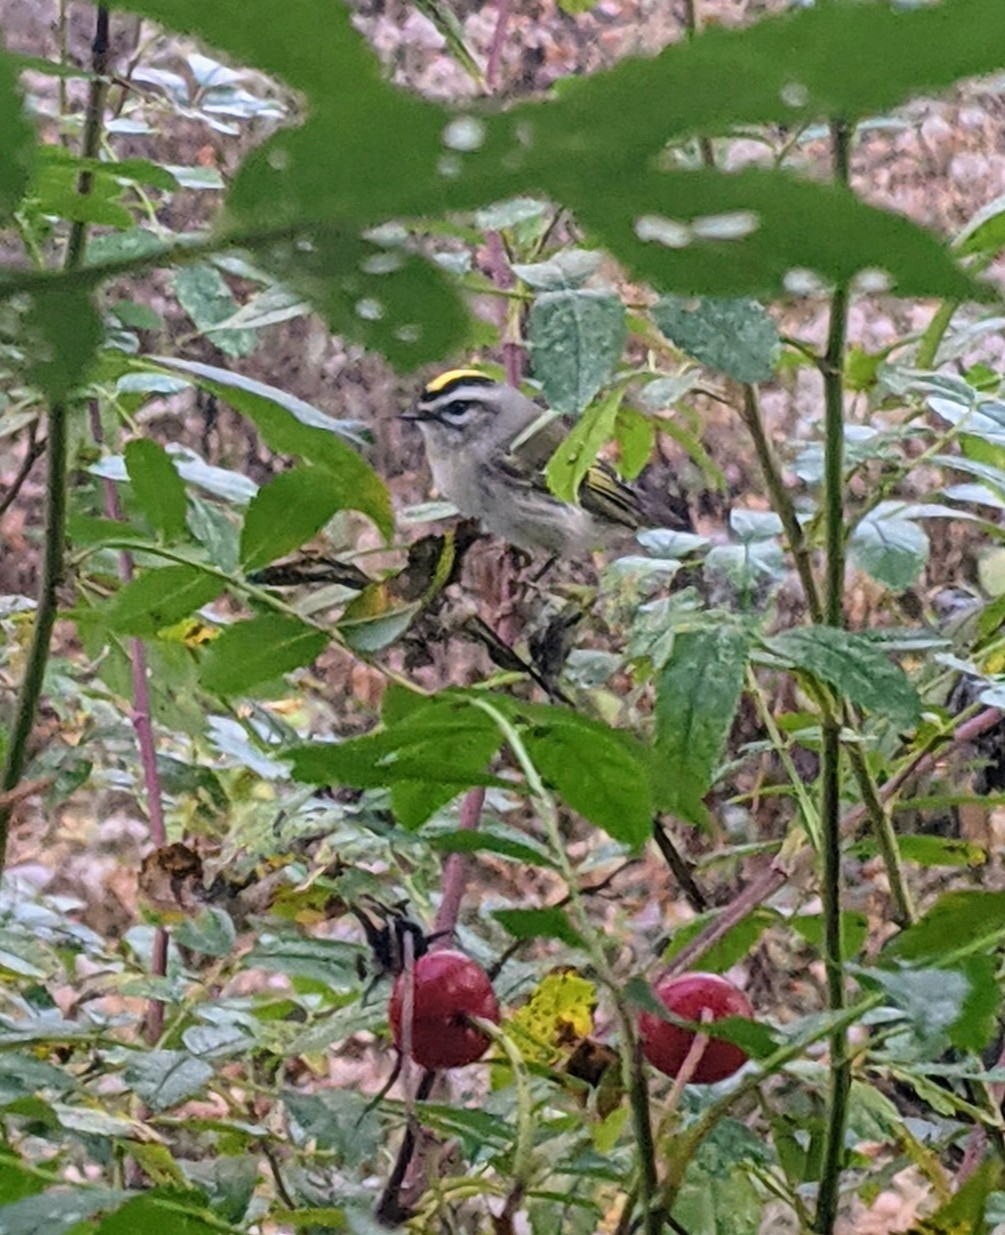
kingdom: Animalia
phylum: Chordata
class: Aves
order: Passeriformes
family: Regulidae
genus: Regulus
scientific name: Regulus satrapa
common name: Golden-crowned kinglet
